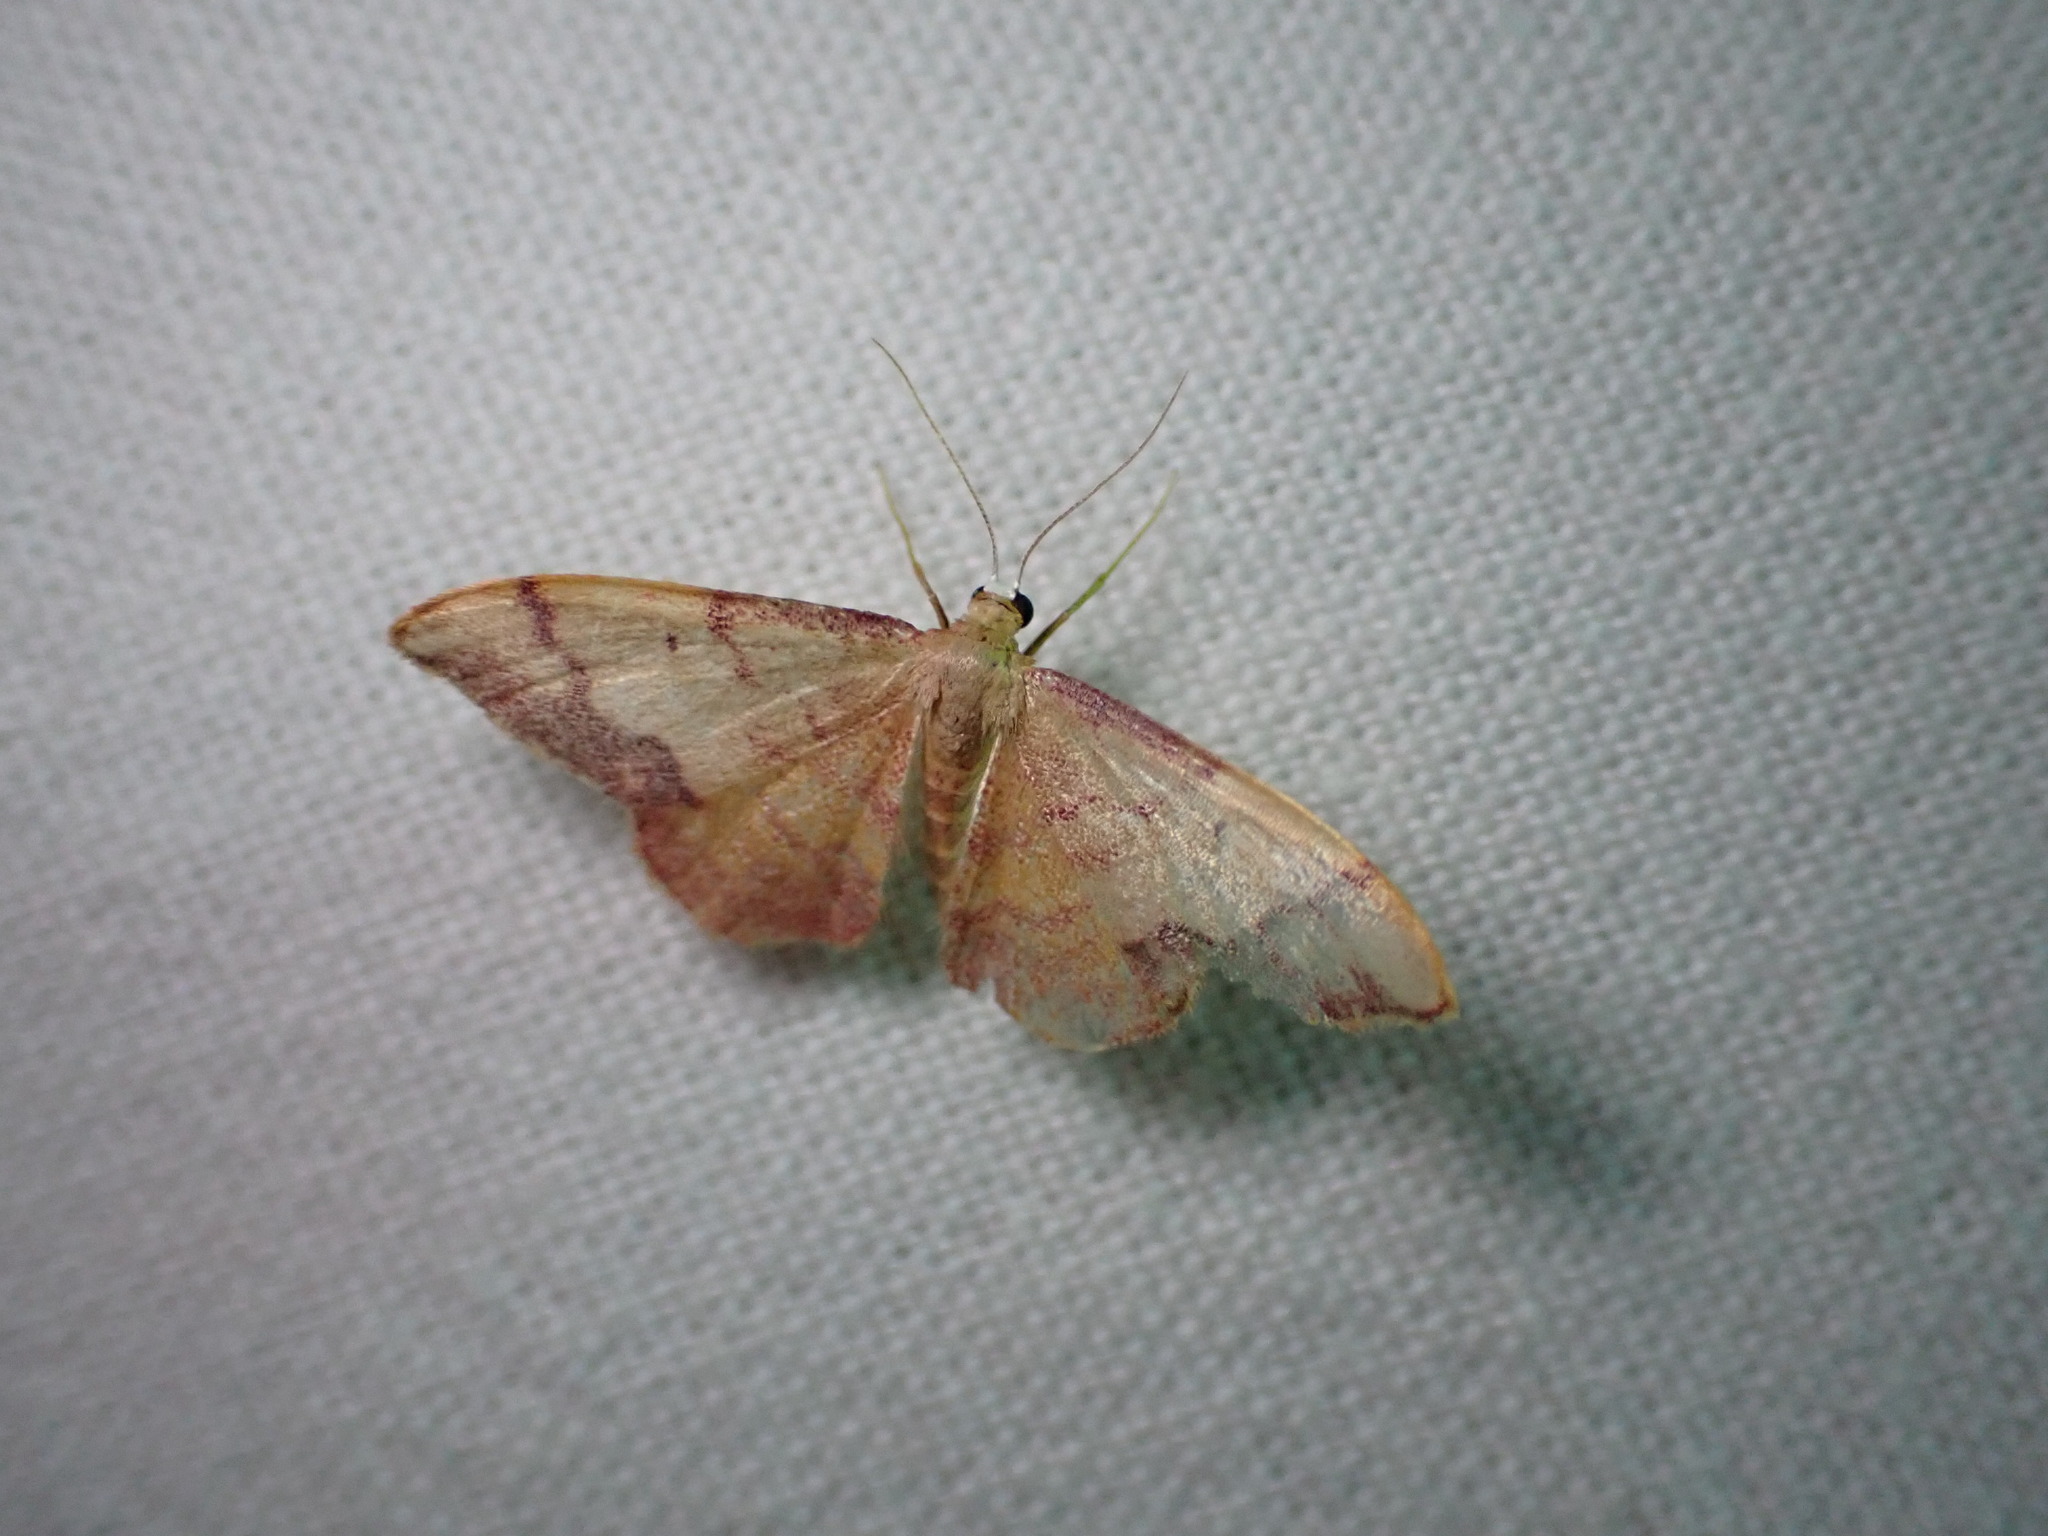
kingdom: Animalia
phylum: Arthropoda
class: Insecta
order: Lepidoptera
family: Geometridae
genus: Idaea
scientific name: Idaea ostrinaria
